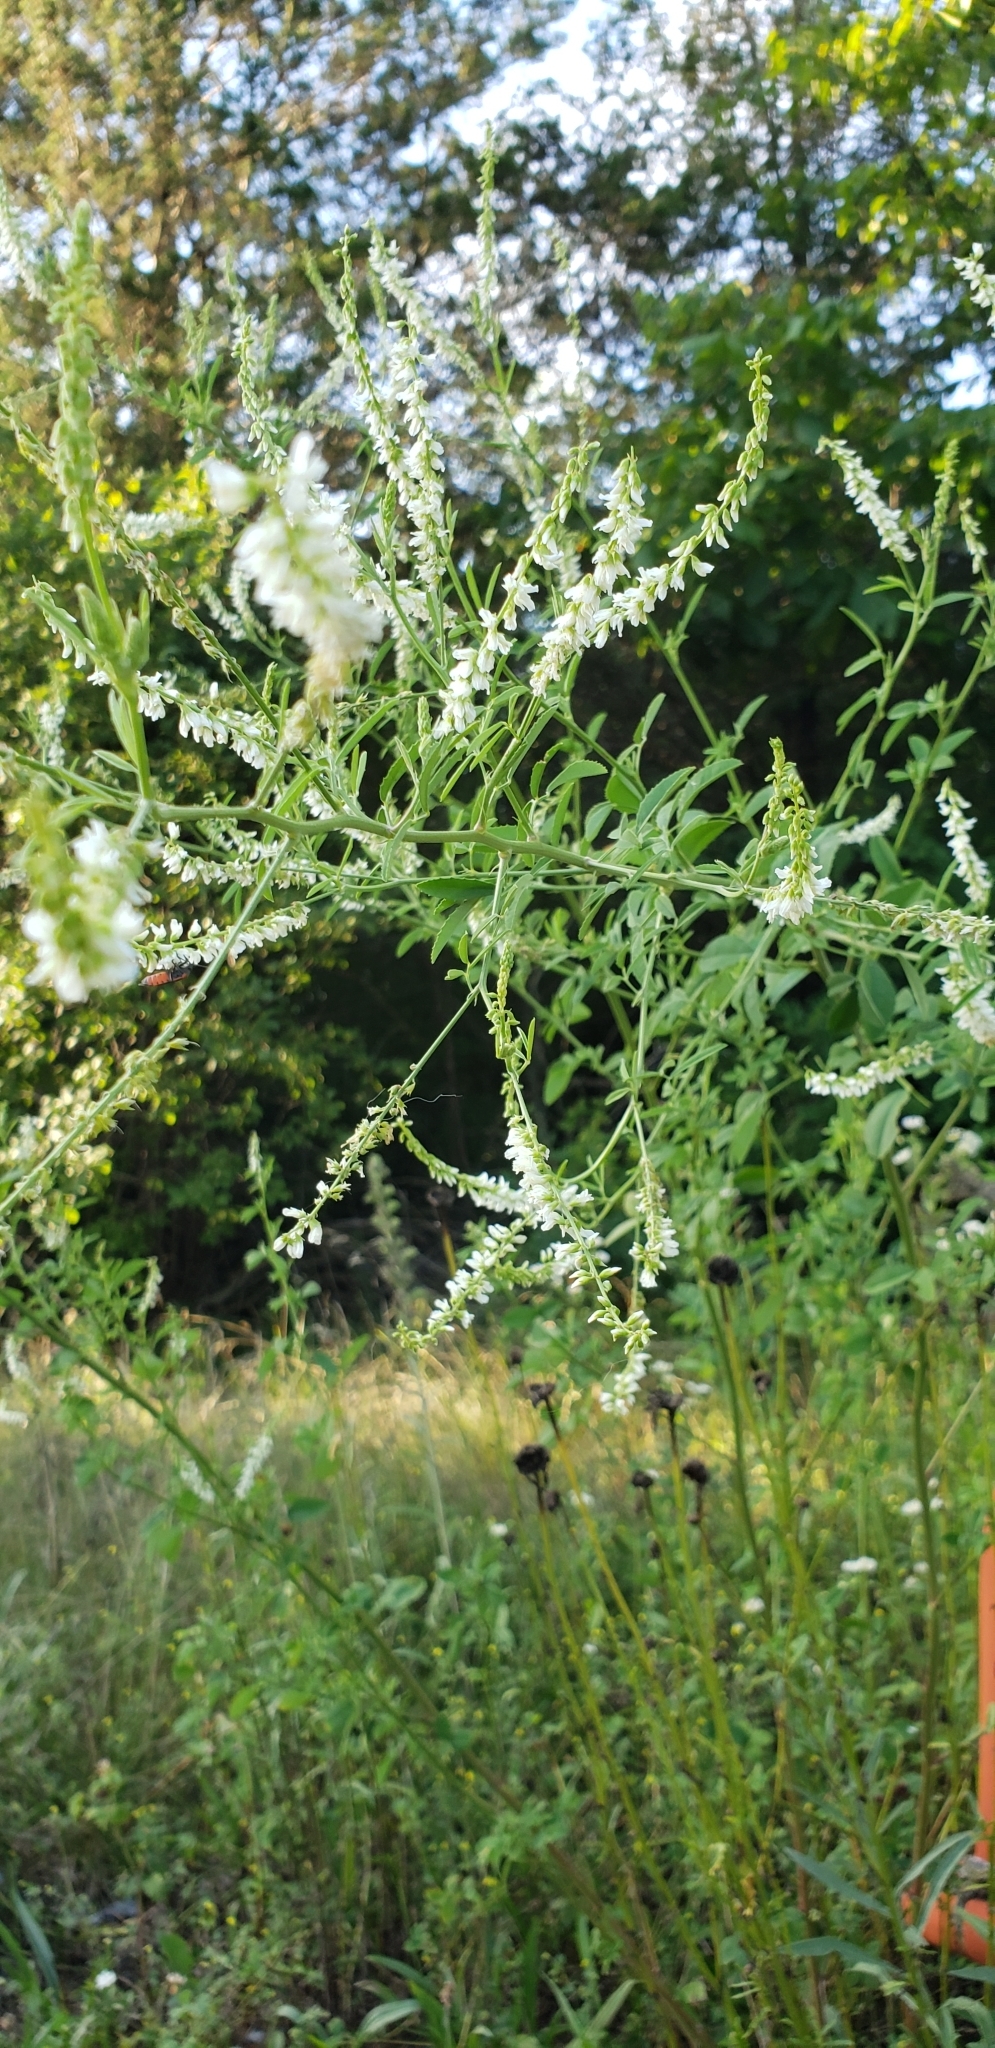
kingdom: Plantae
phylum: Tracheophyta
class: Magnoliopsida
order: Fabales
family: Fabaceae
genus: Melilotus
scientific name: Melilotus albus
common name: White melilot
